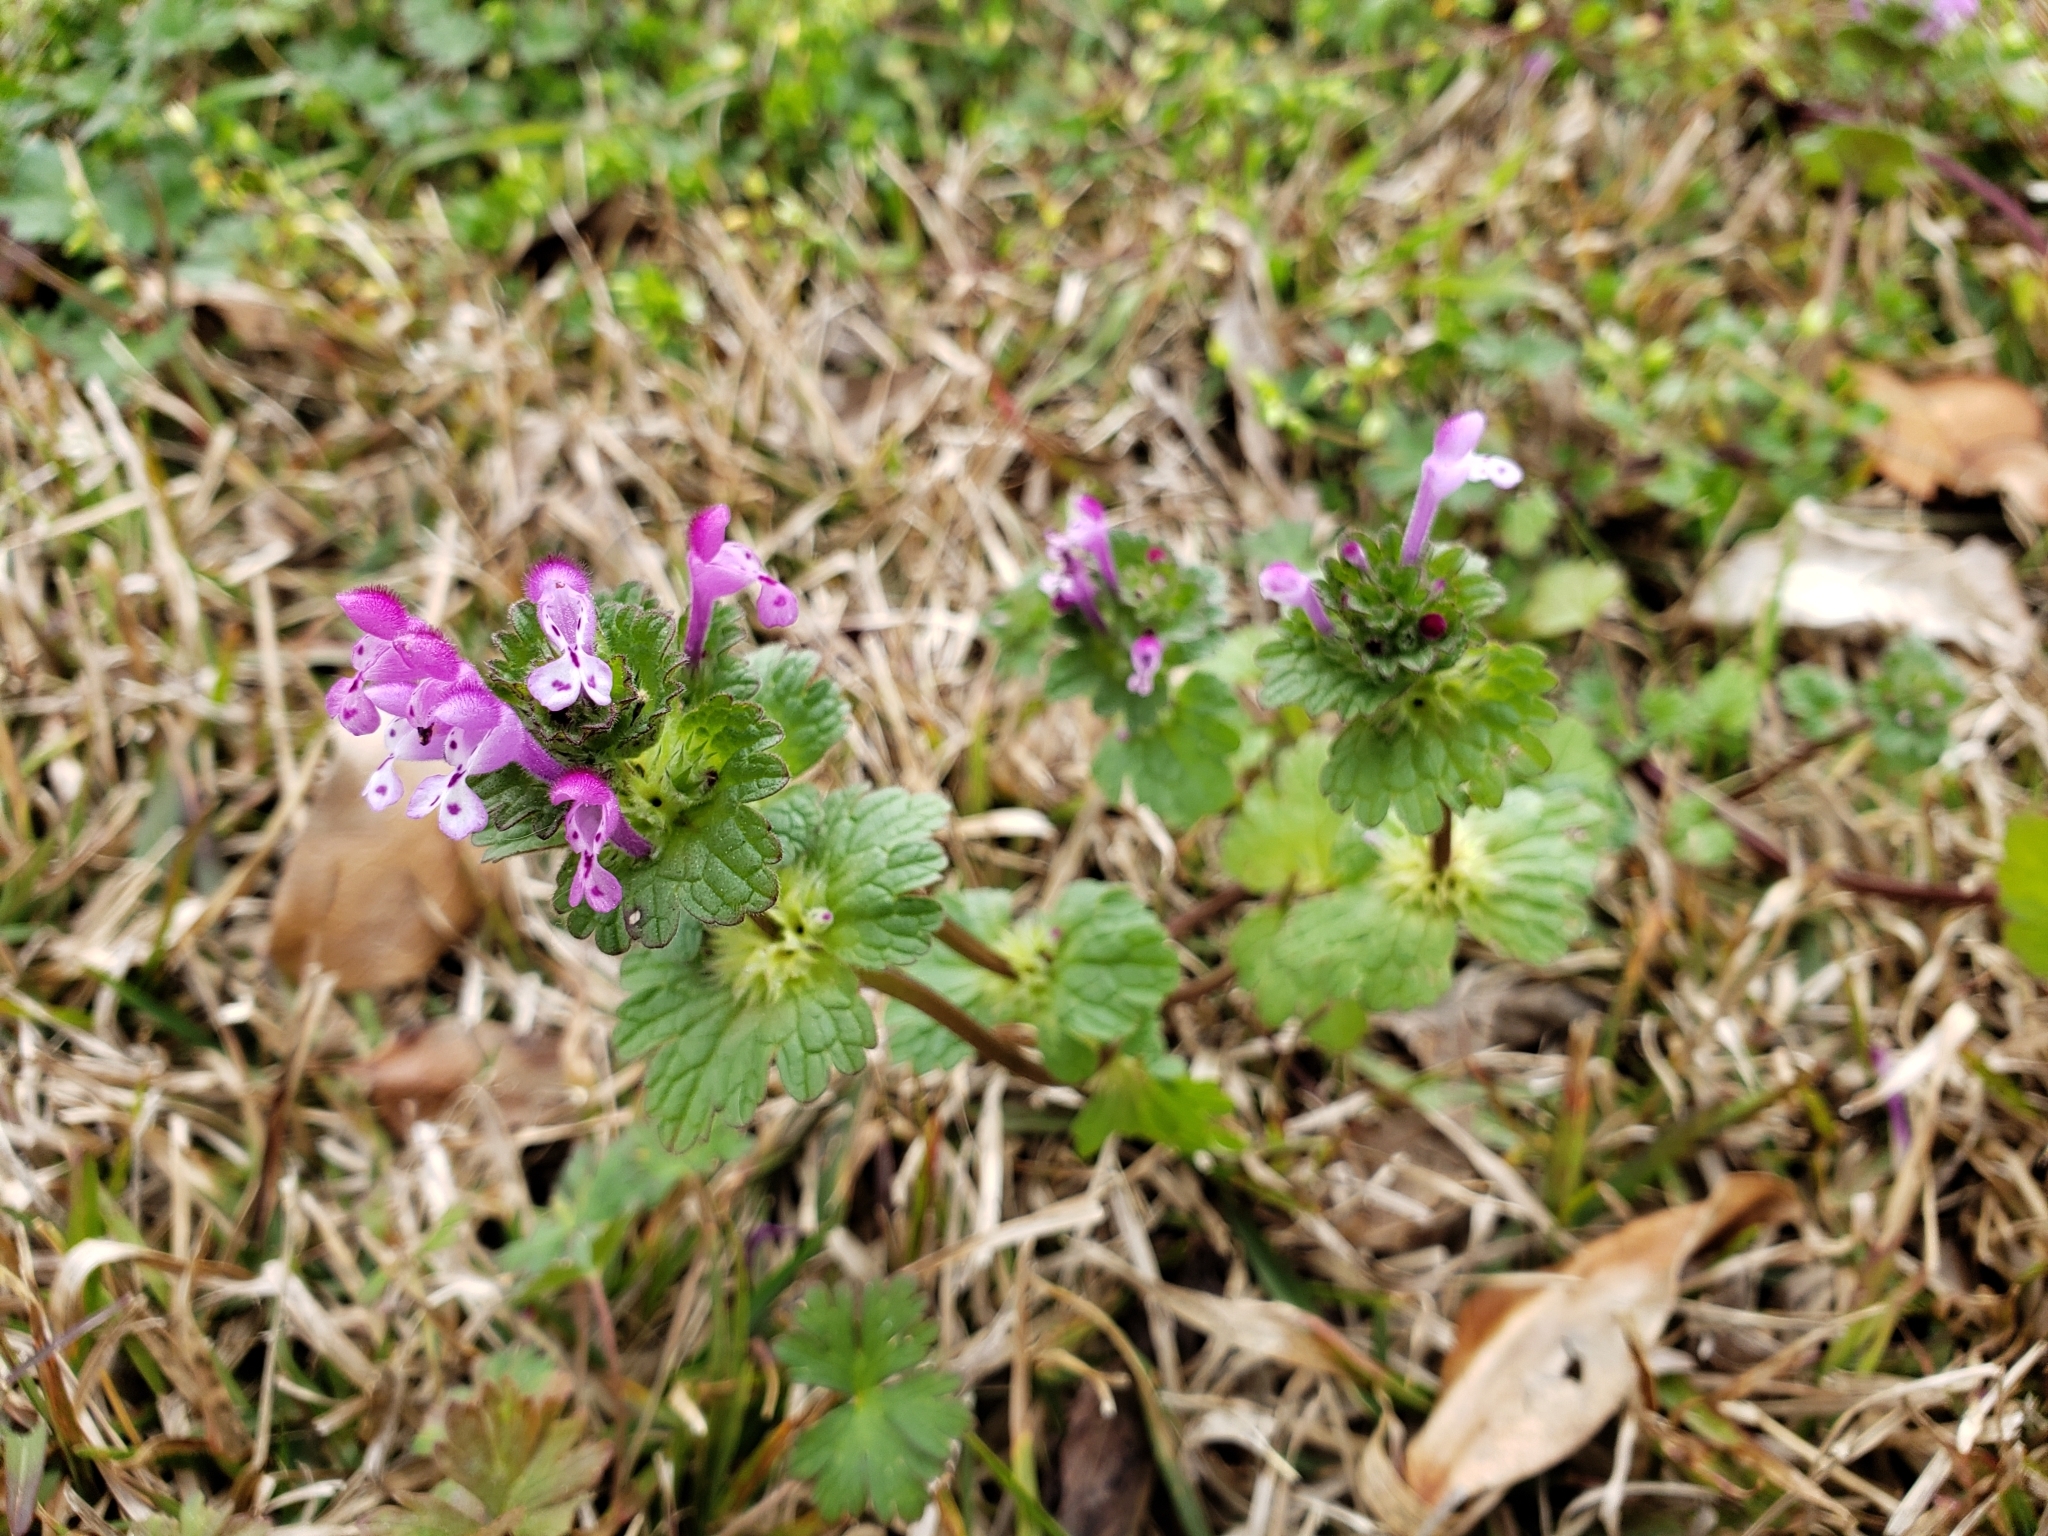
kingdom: Plantae
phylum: Tracheophyta
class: Magnoliopsida
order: Lamiales
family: Lamiaceae
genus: Lamium
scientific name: Lamium amplexicaule
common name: Henbit dead-nettle
